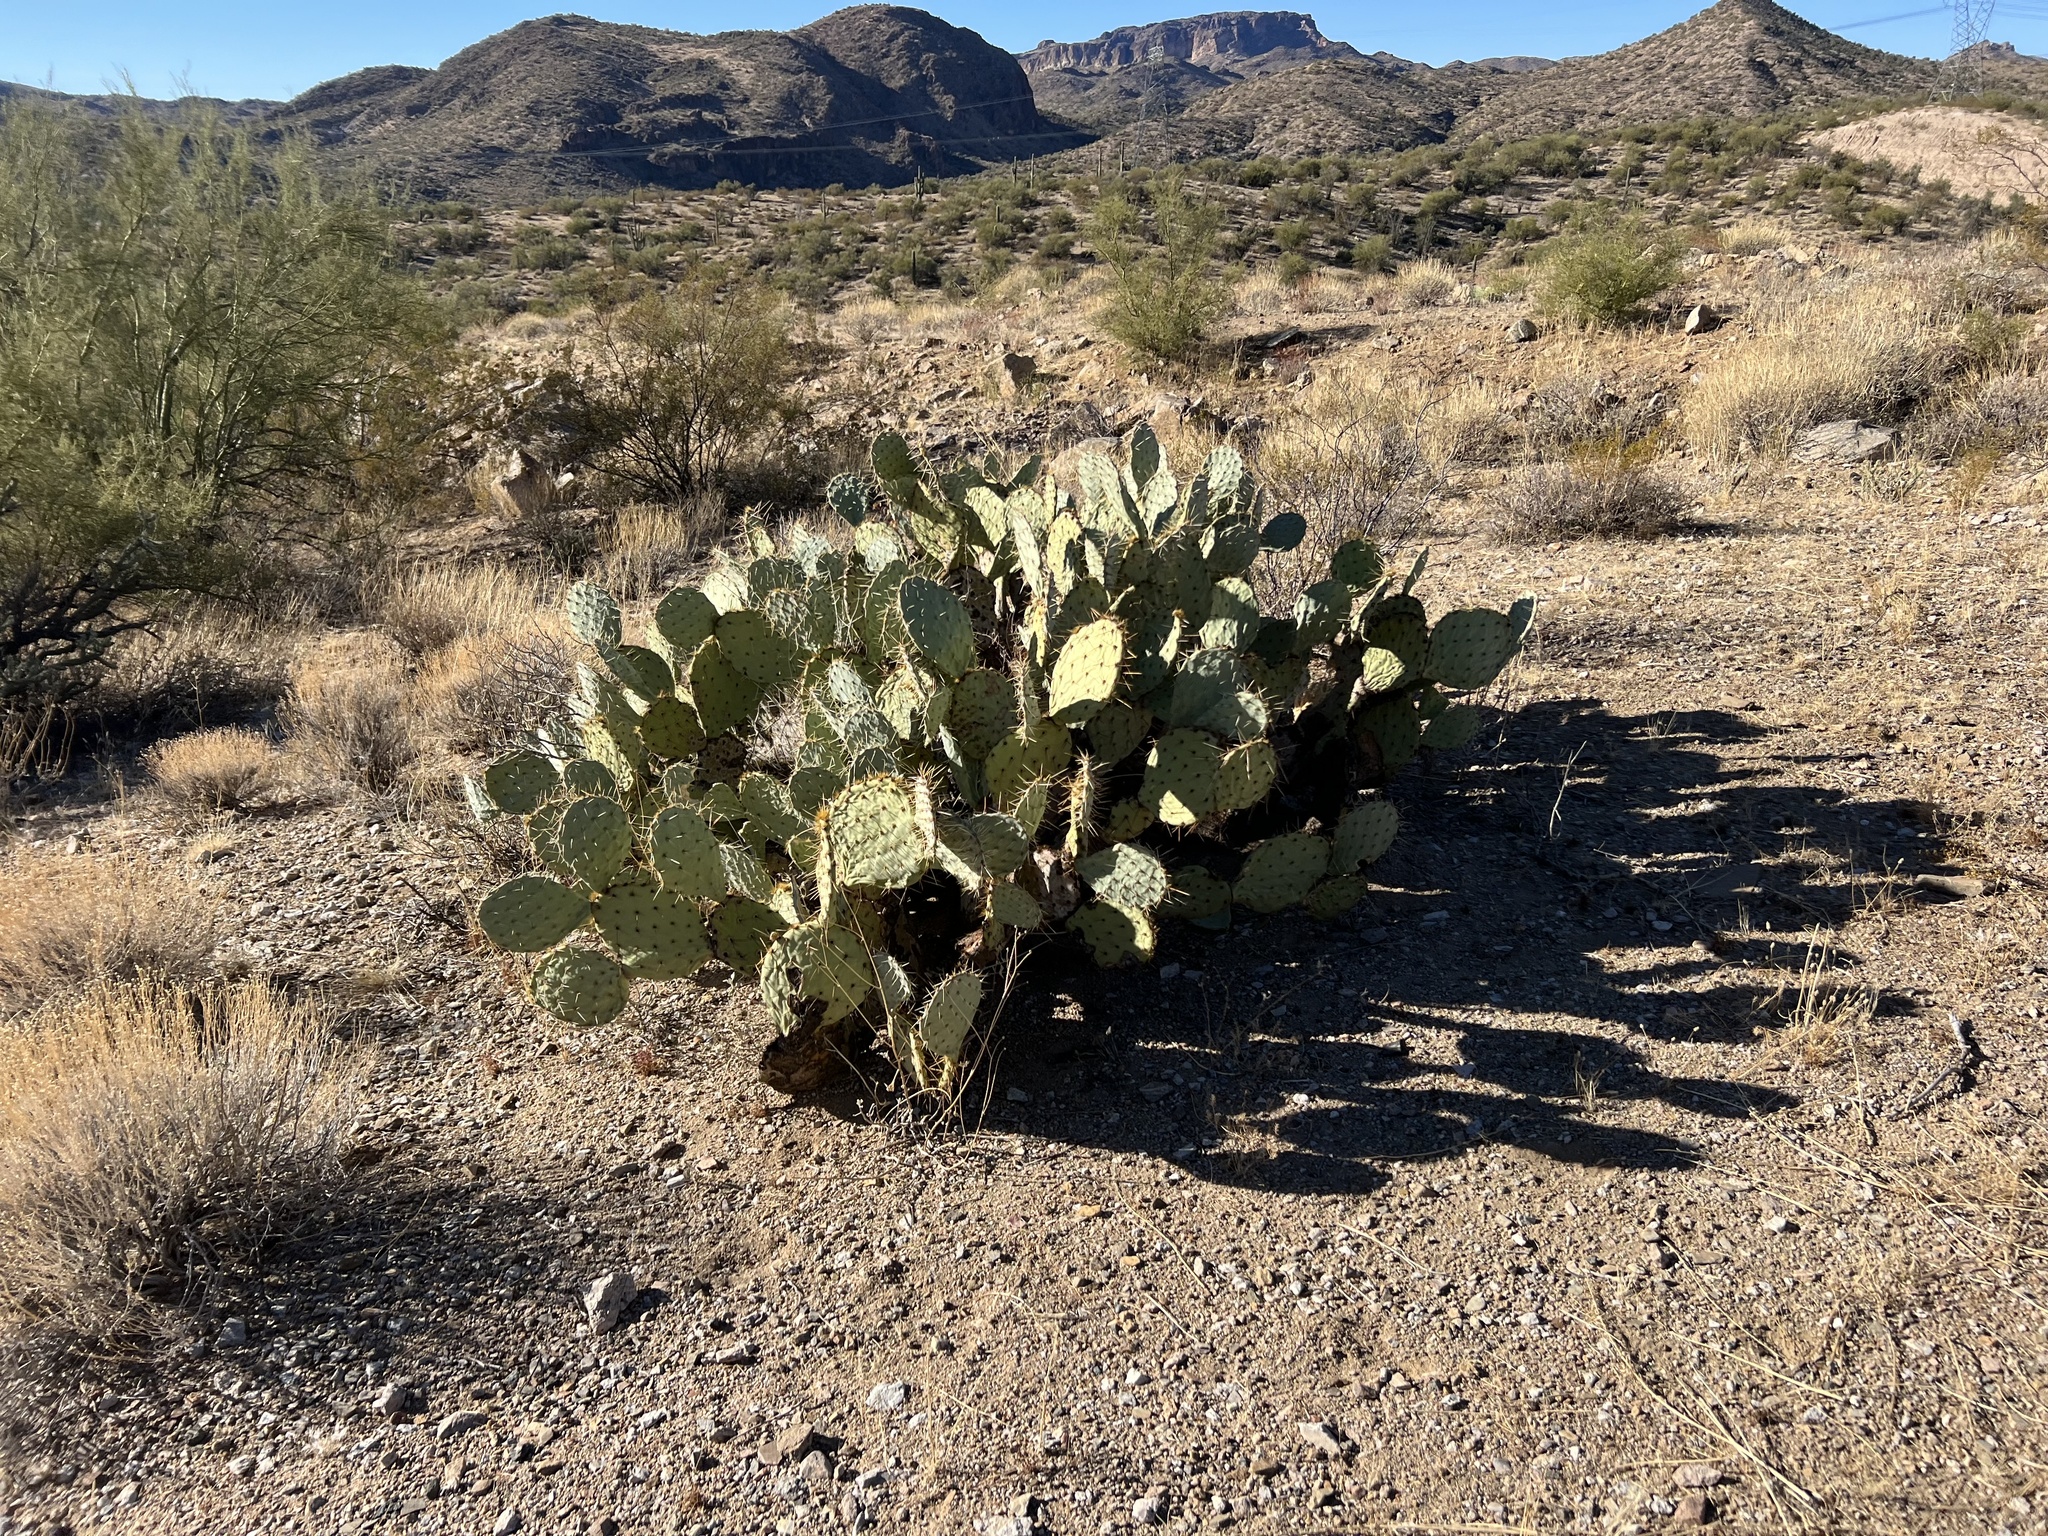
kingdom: Plantae
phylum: Tracheophyta
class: Magnoliopsida
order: Caryophyllales
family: Cactaceae
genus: Opuntia
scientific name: Opuntia engelmannii
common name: Cactus-apple
